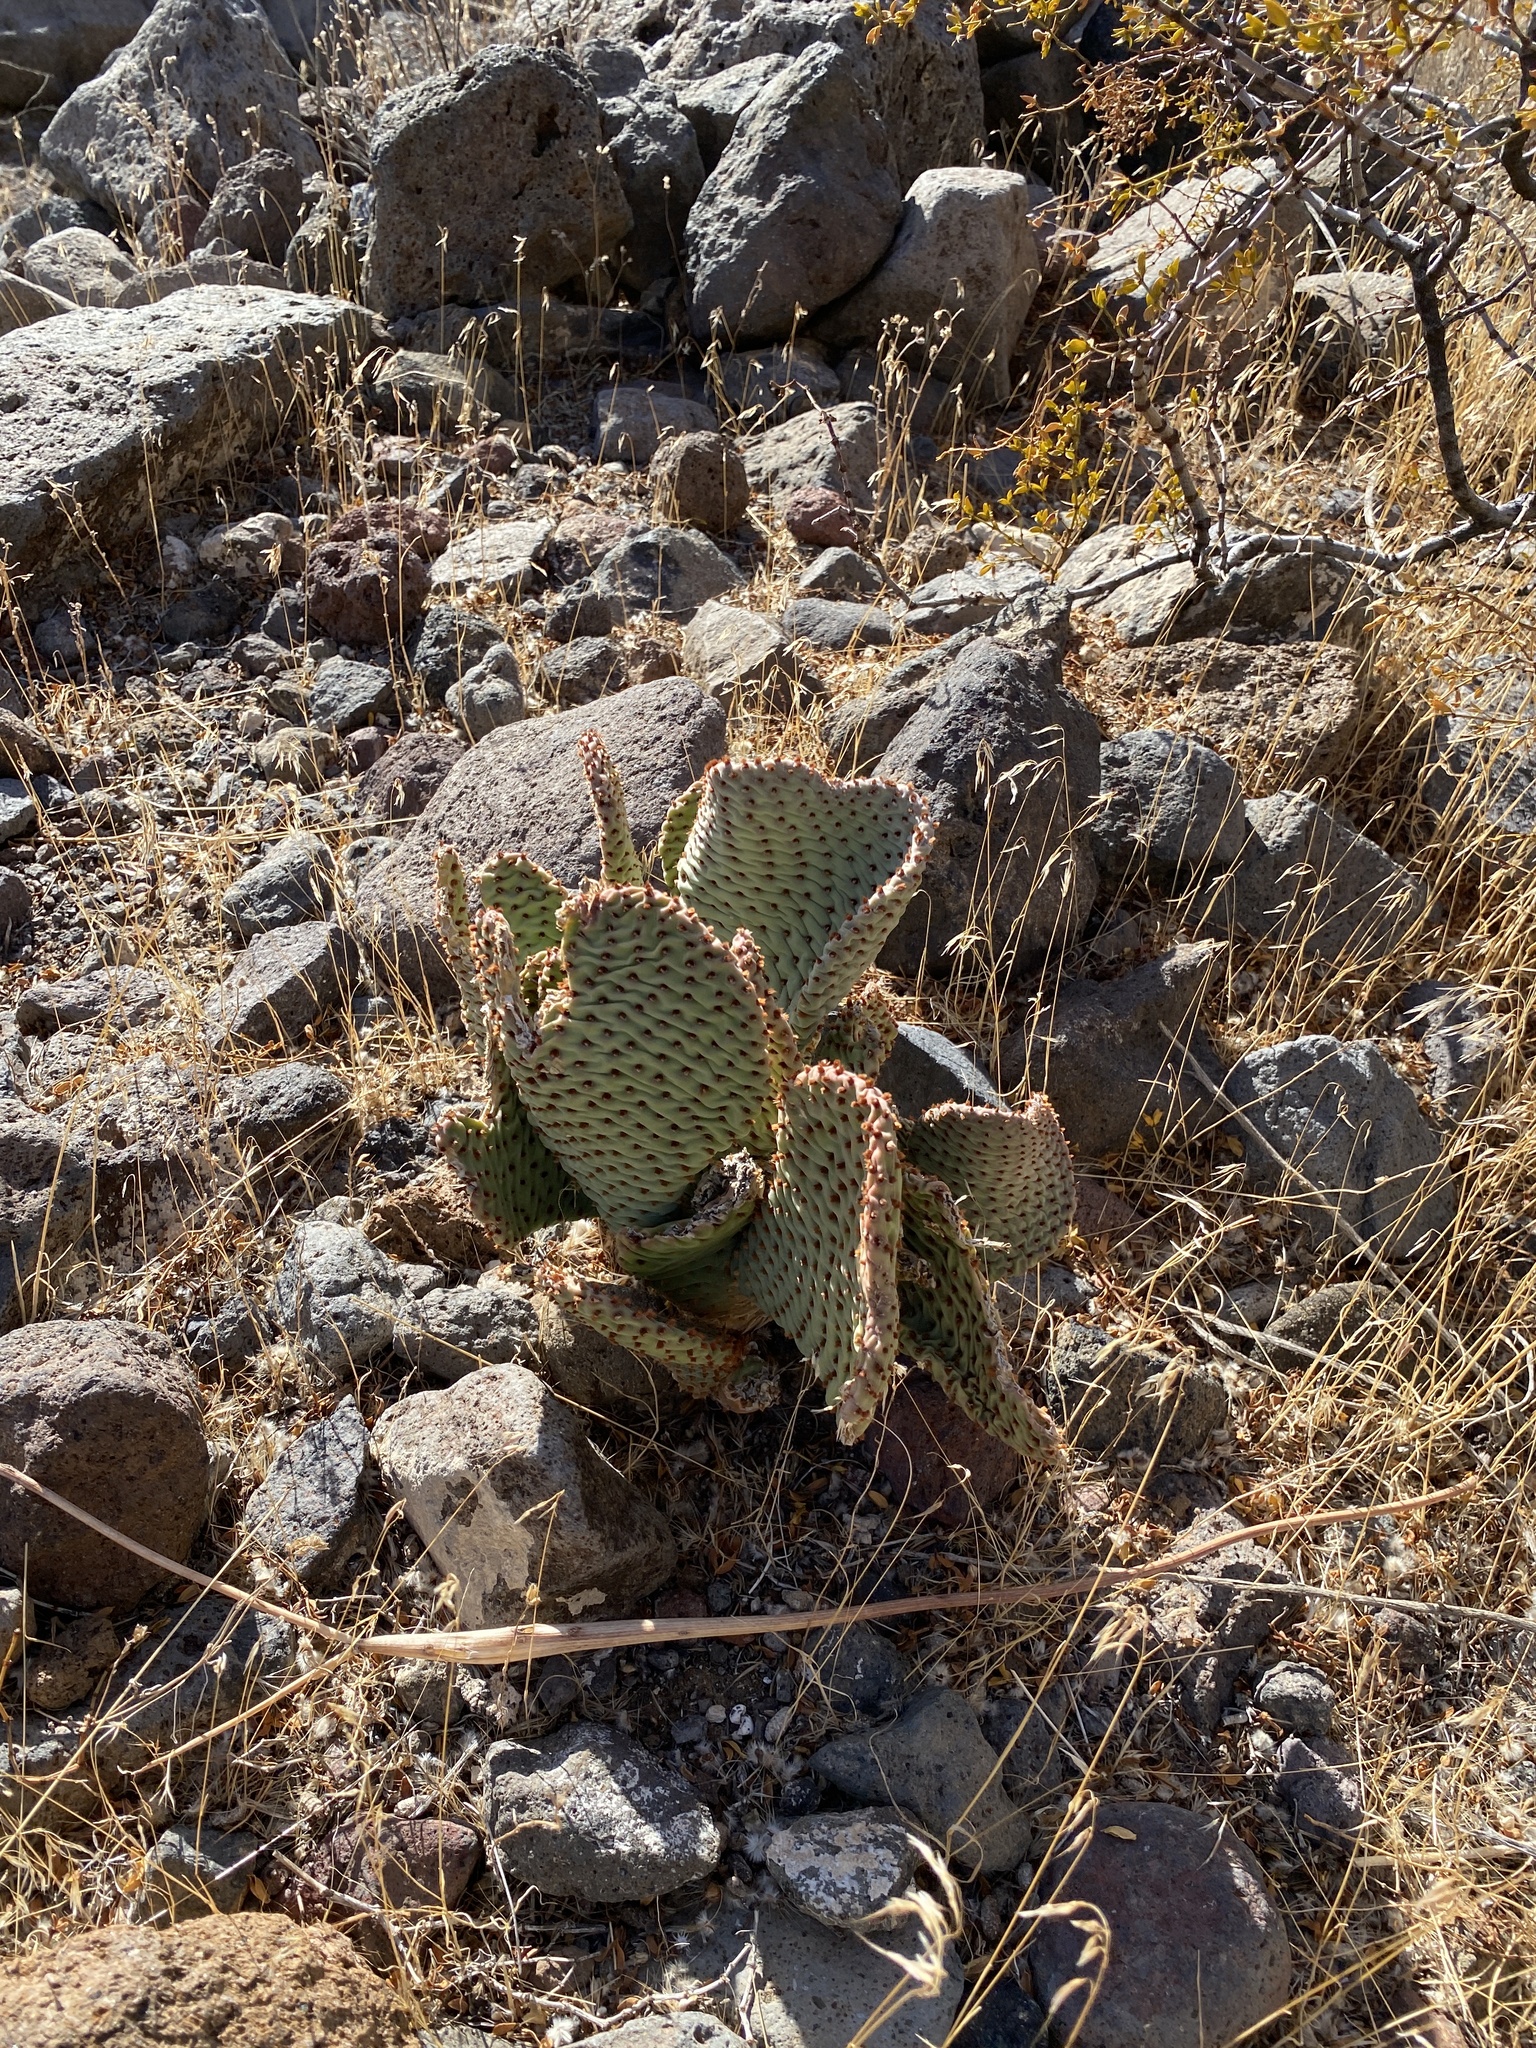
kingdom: Plantae
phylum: Tracheophyta
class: Magnoliopsida
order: Caryophyllales
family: Cactaceae
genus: Opuntia
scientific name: Opuntia basilaris
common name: Beavertail prickly-pear
